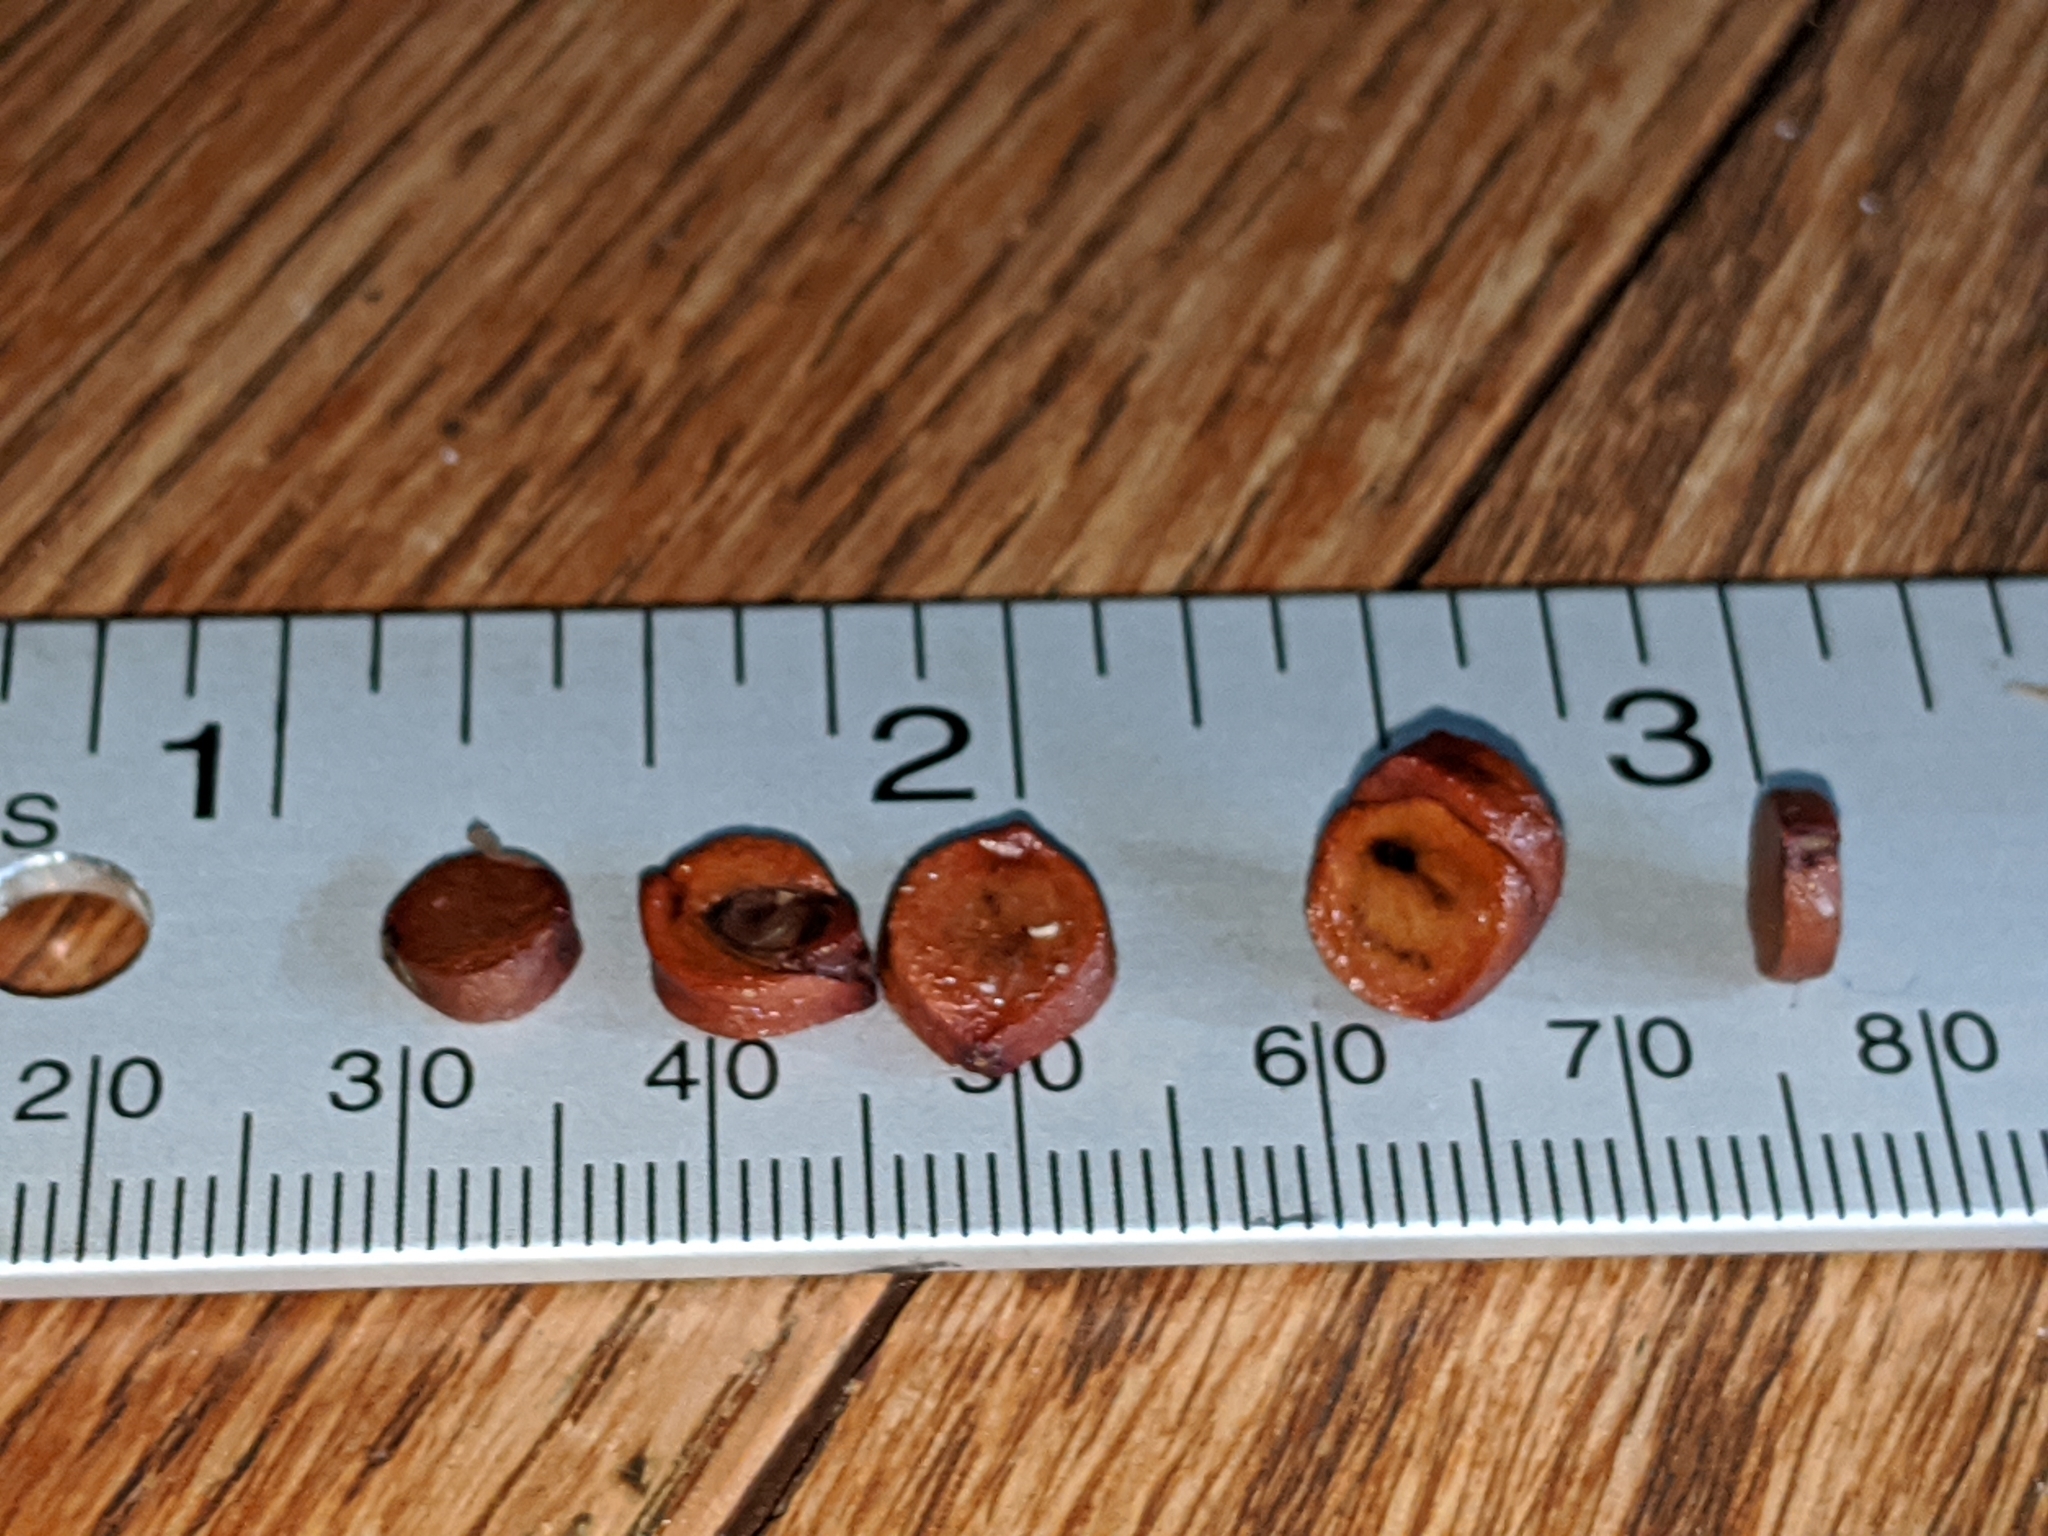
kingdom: Plantae
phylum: Tracheophyta
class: Liliopsida
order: Asparagales
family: Iridaceae
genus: Iris
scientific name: Iris pseudacorus
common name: Yellow flag
